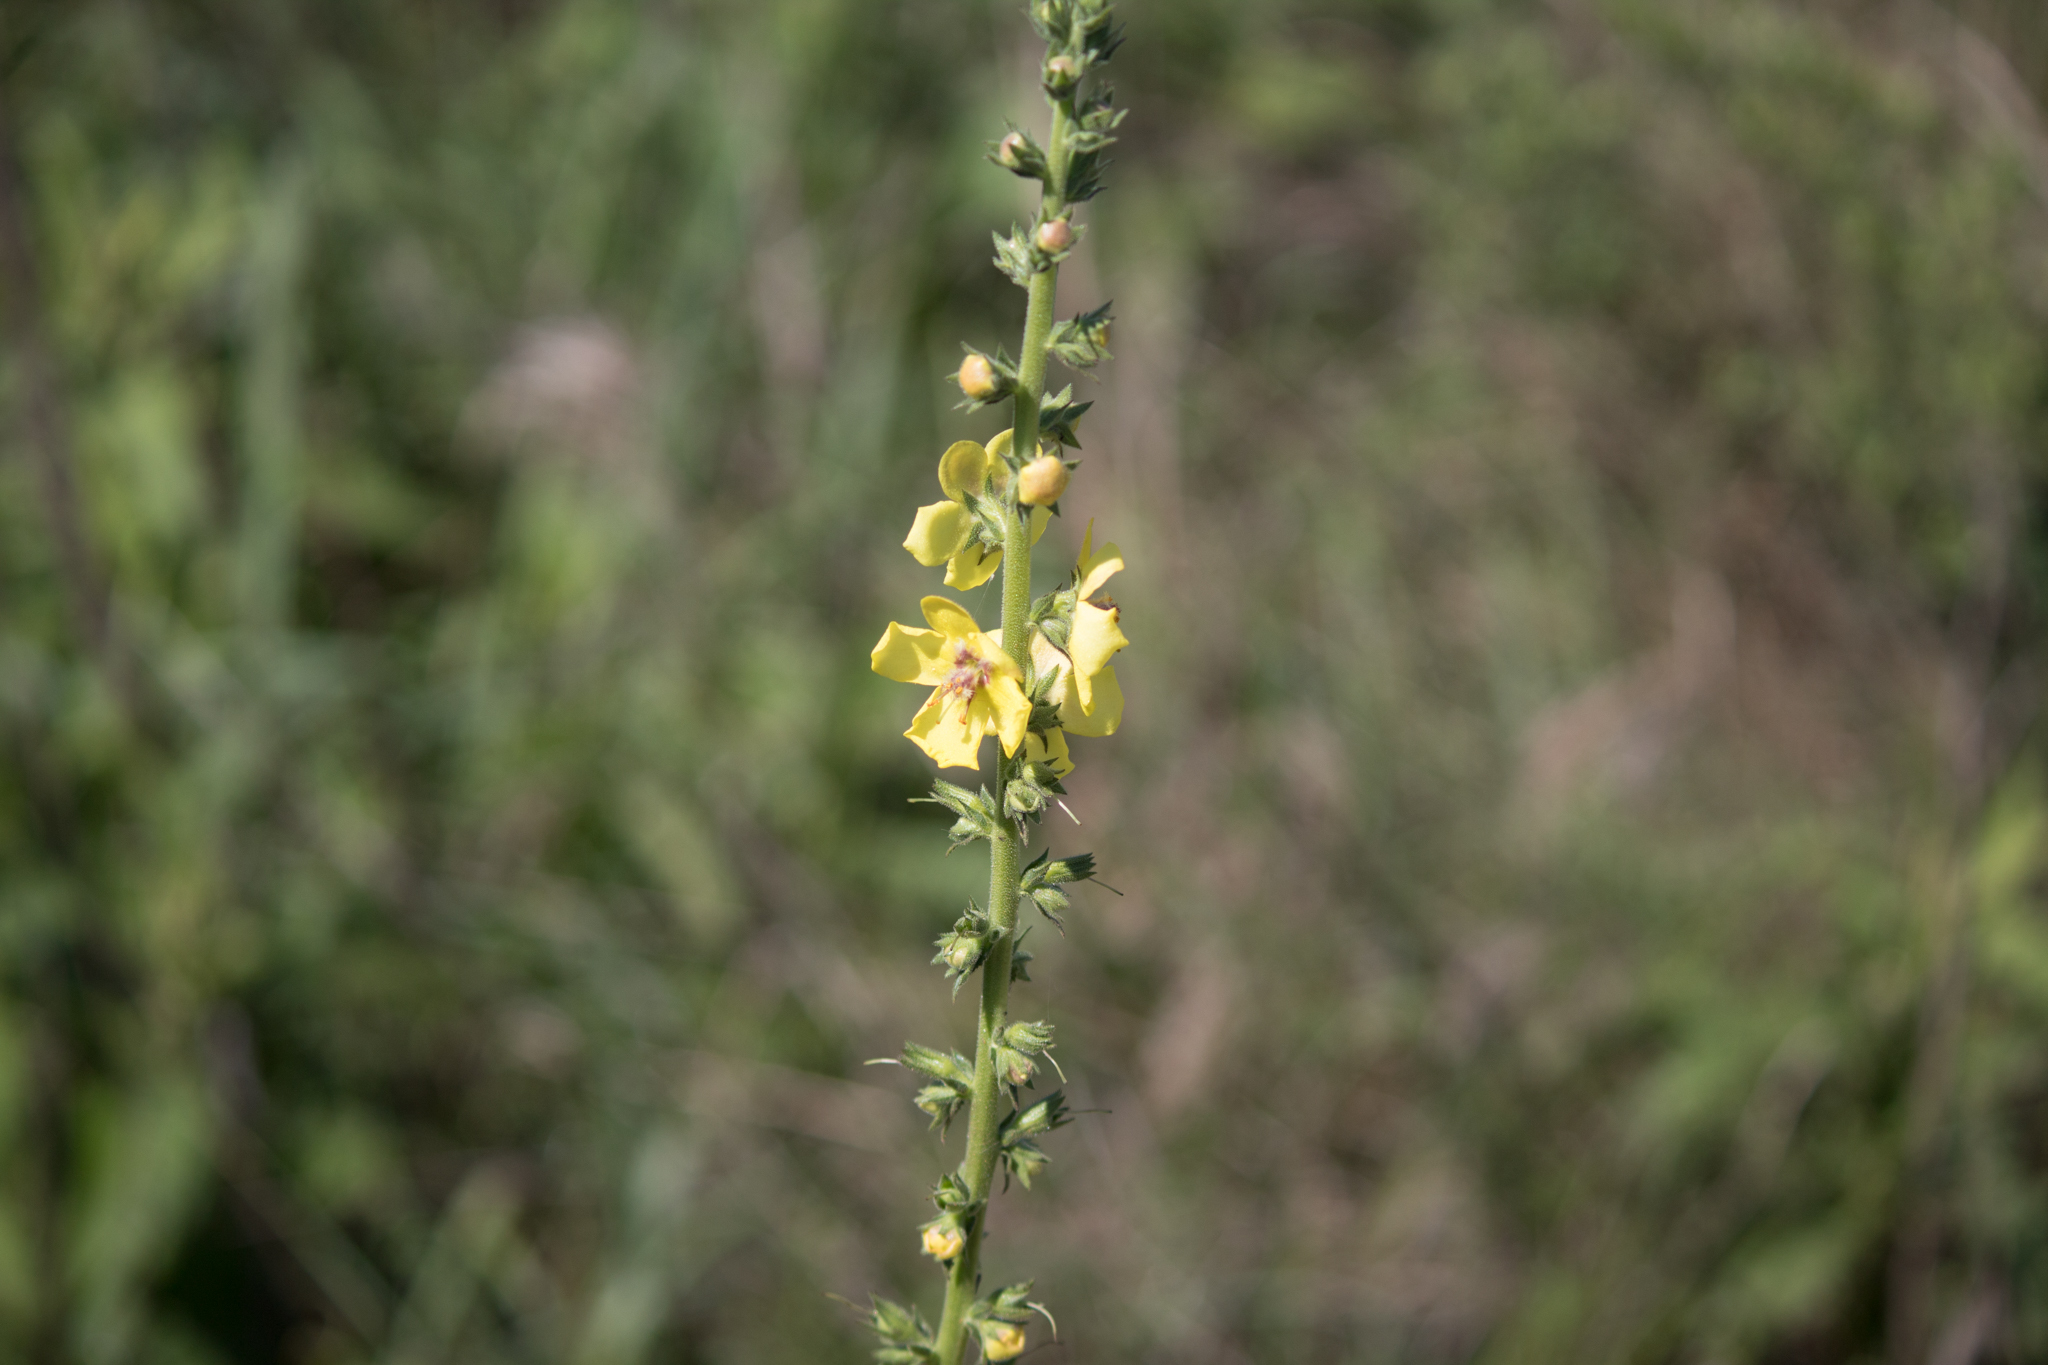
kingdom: Plantae
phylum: Tracheophyta
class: Magnoliopsida
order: Lamiales
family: Scrophulariaceae
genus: Verbascum
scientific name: Verbascum virgatum
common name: Twiggy mullein
